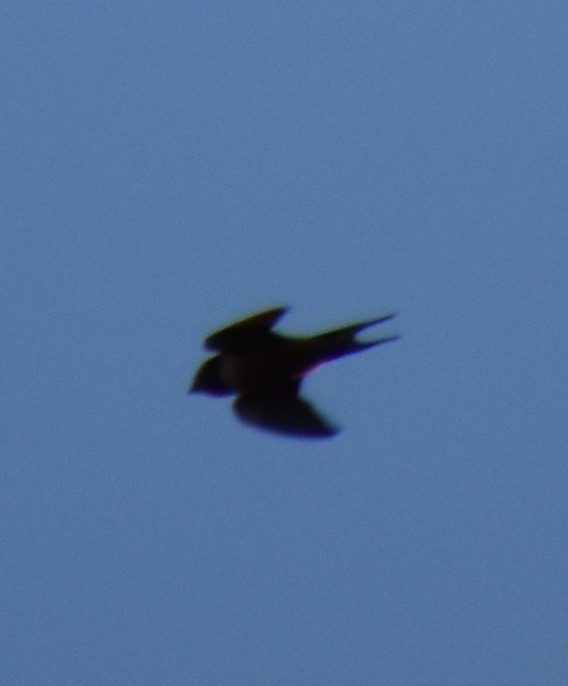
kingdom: Animalia
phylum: Chordata
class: Aves
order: Passeriformes
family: Hirundinidae
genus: Hirundo
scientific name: Hirundo rustica
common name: Barn swallow
